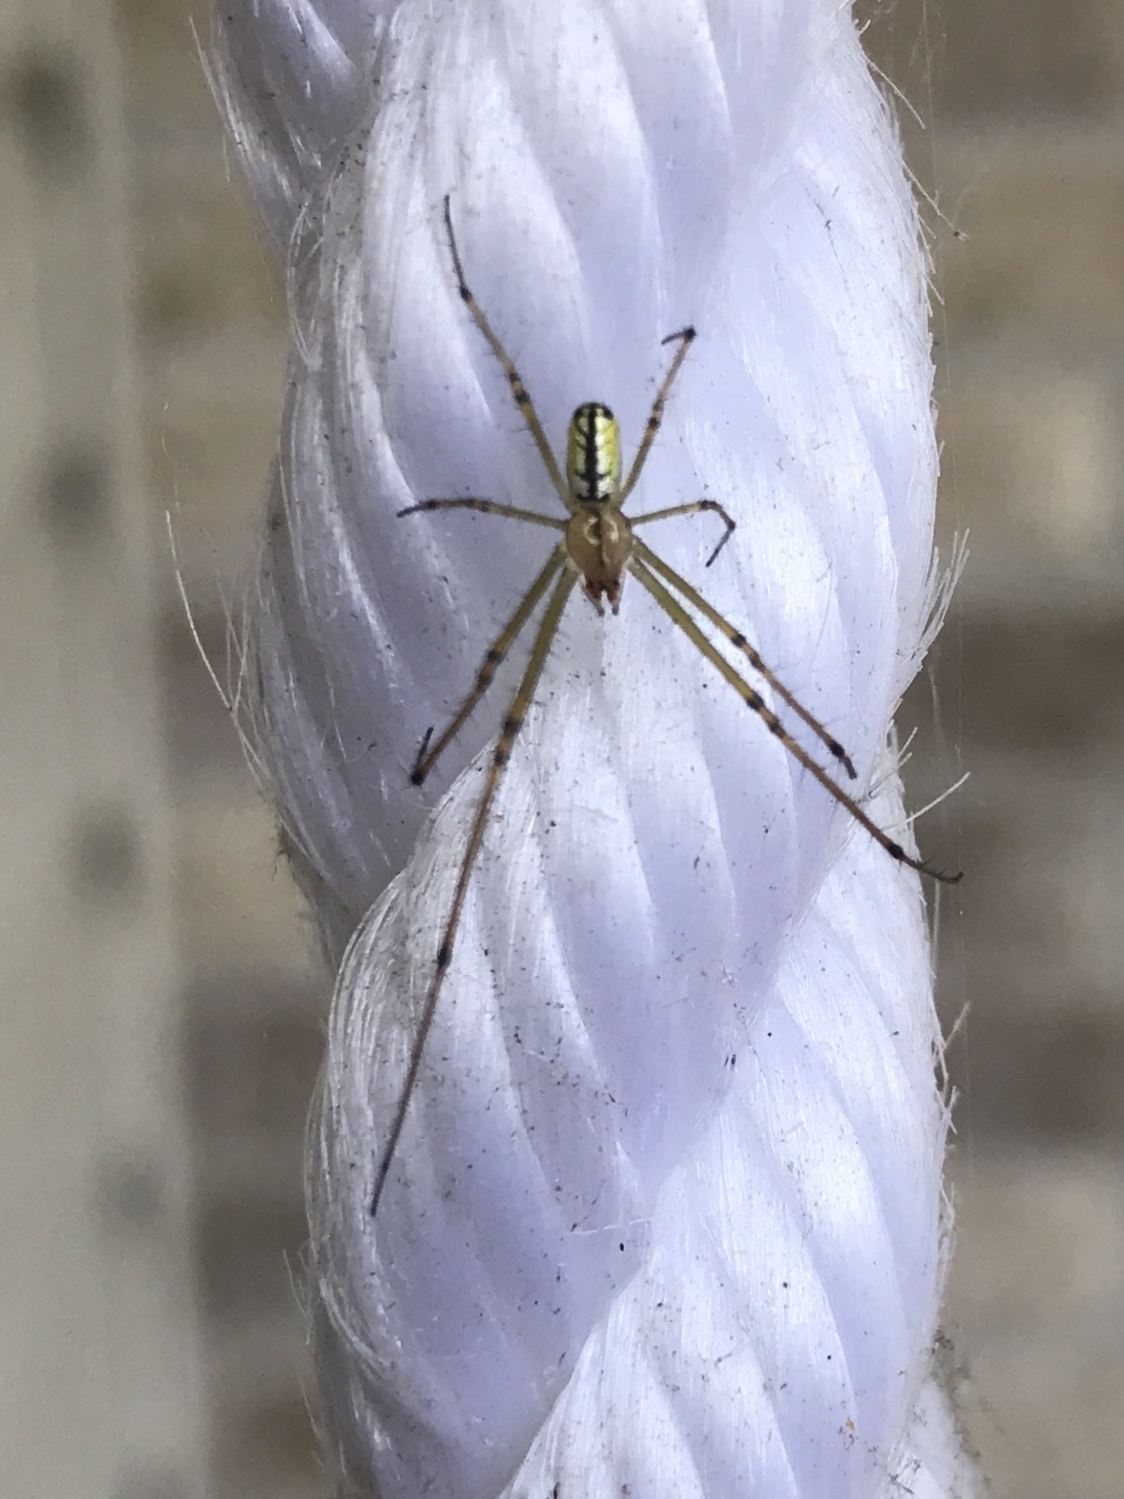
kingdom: Animalia
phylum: Arthropoda
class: Arachnida
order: Araneae
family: Tetragnathidae
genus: Leucauge
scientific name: Leucauge venusta
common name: Longjawed orb weavers
